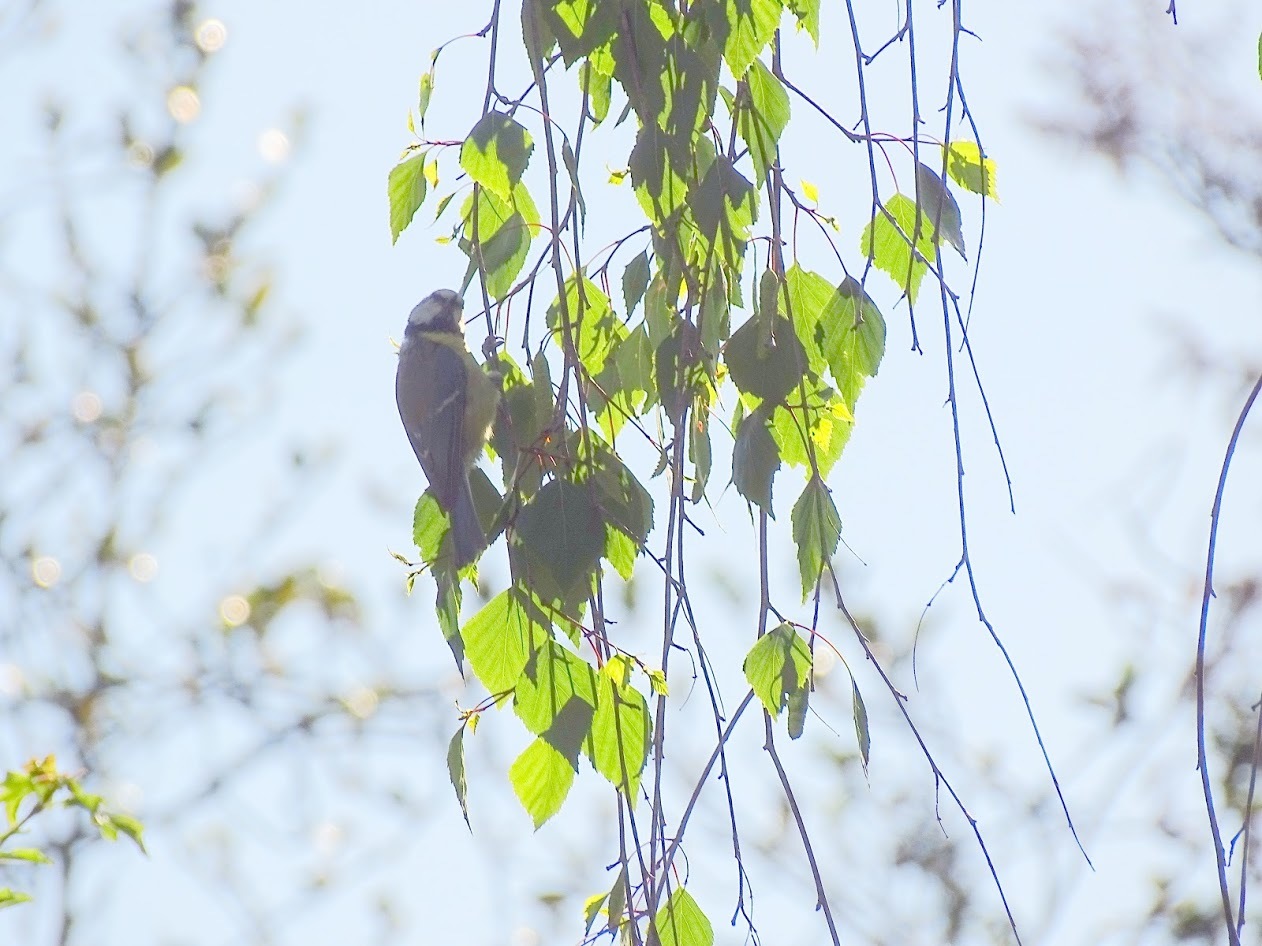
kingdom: Animalia
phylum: Chordata
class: Aves
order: Passeriformes
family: Paridae
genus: Cyanistes
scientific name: Cyanistes caeruleus
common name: Eurasian blue tit
